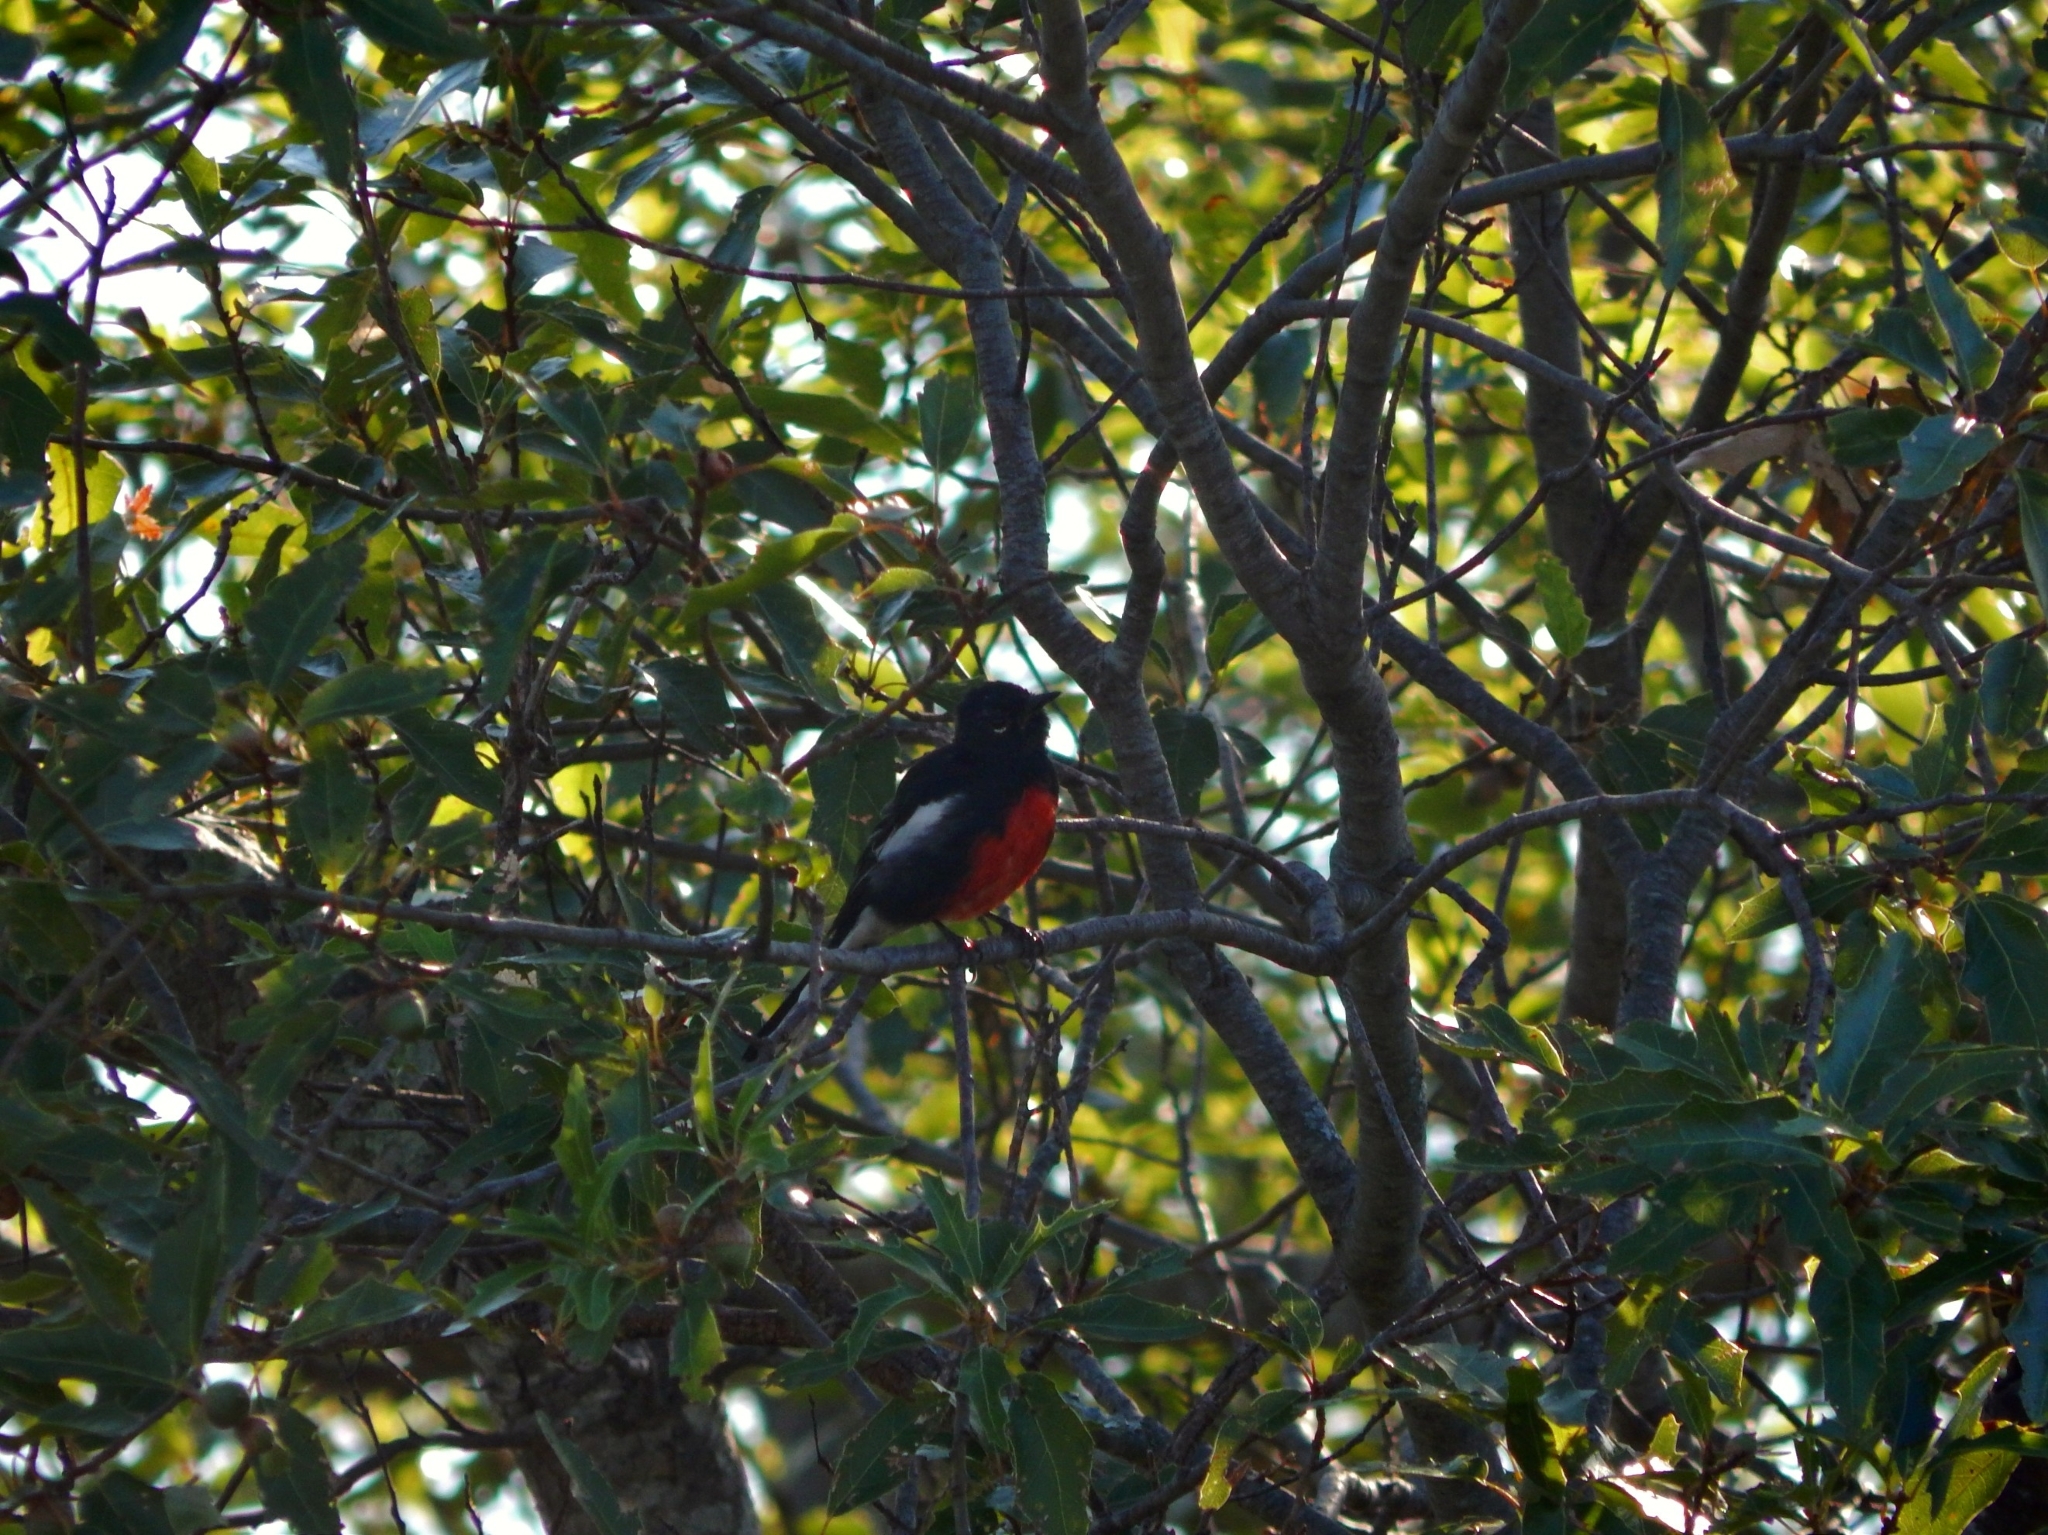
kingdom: Animalia
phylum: Chordata
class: Aves
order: Passeriformes
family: Parulidae
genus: Myioborus
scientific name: Myioborus pictus
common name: Painted whitestart
